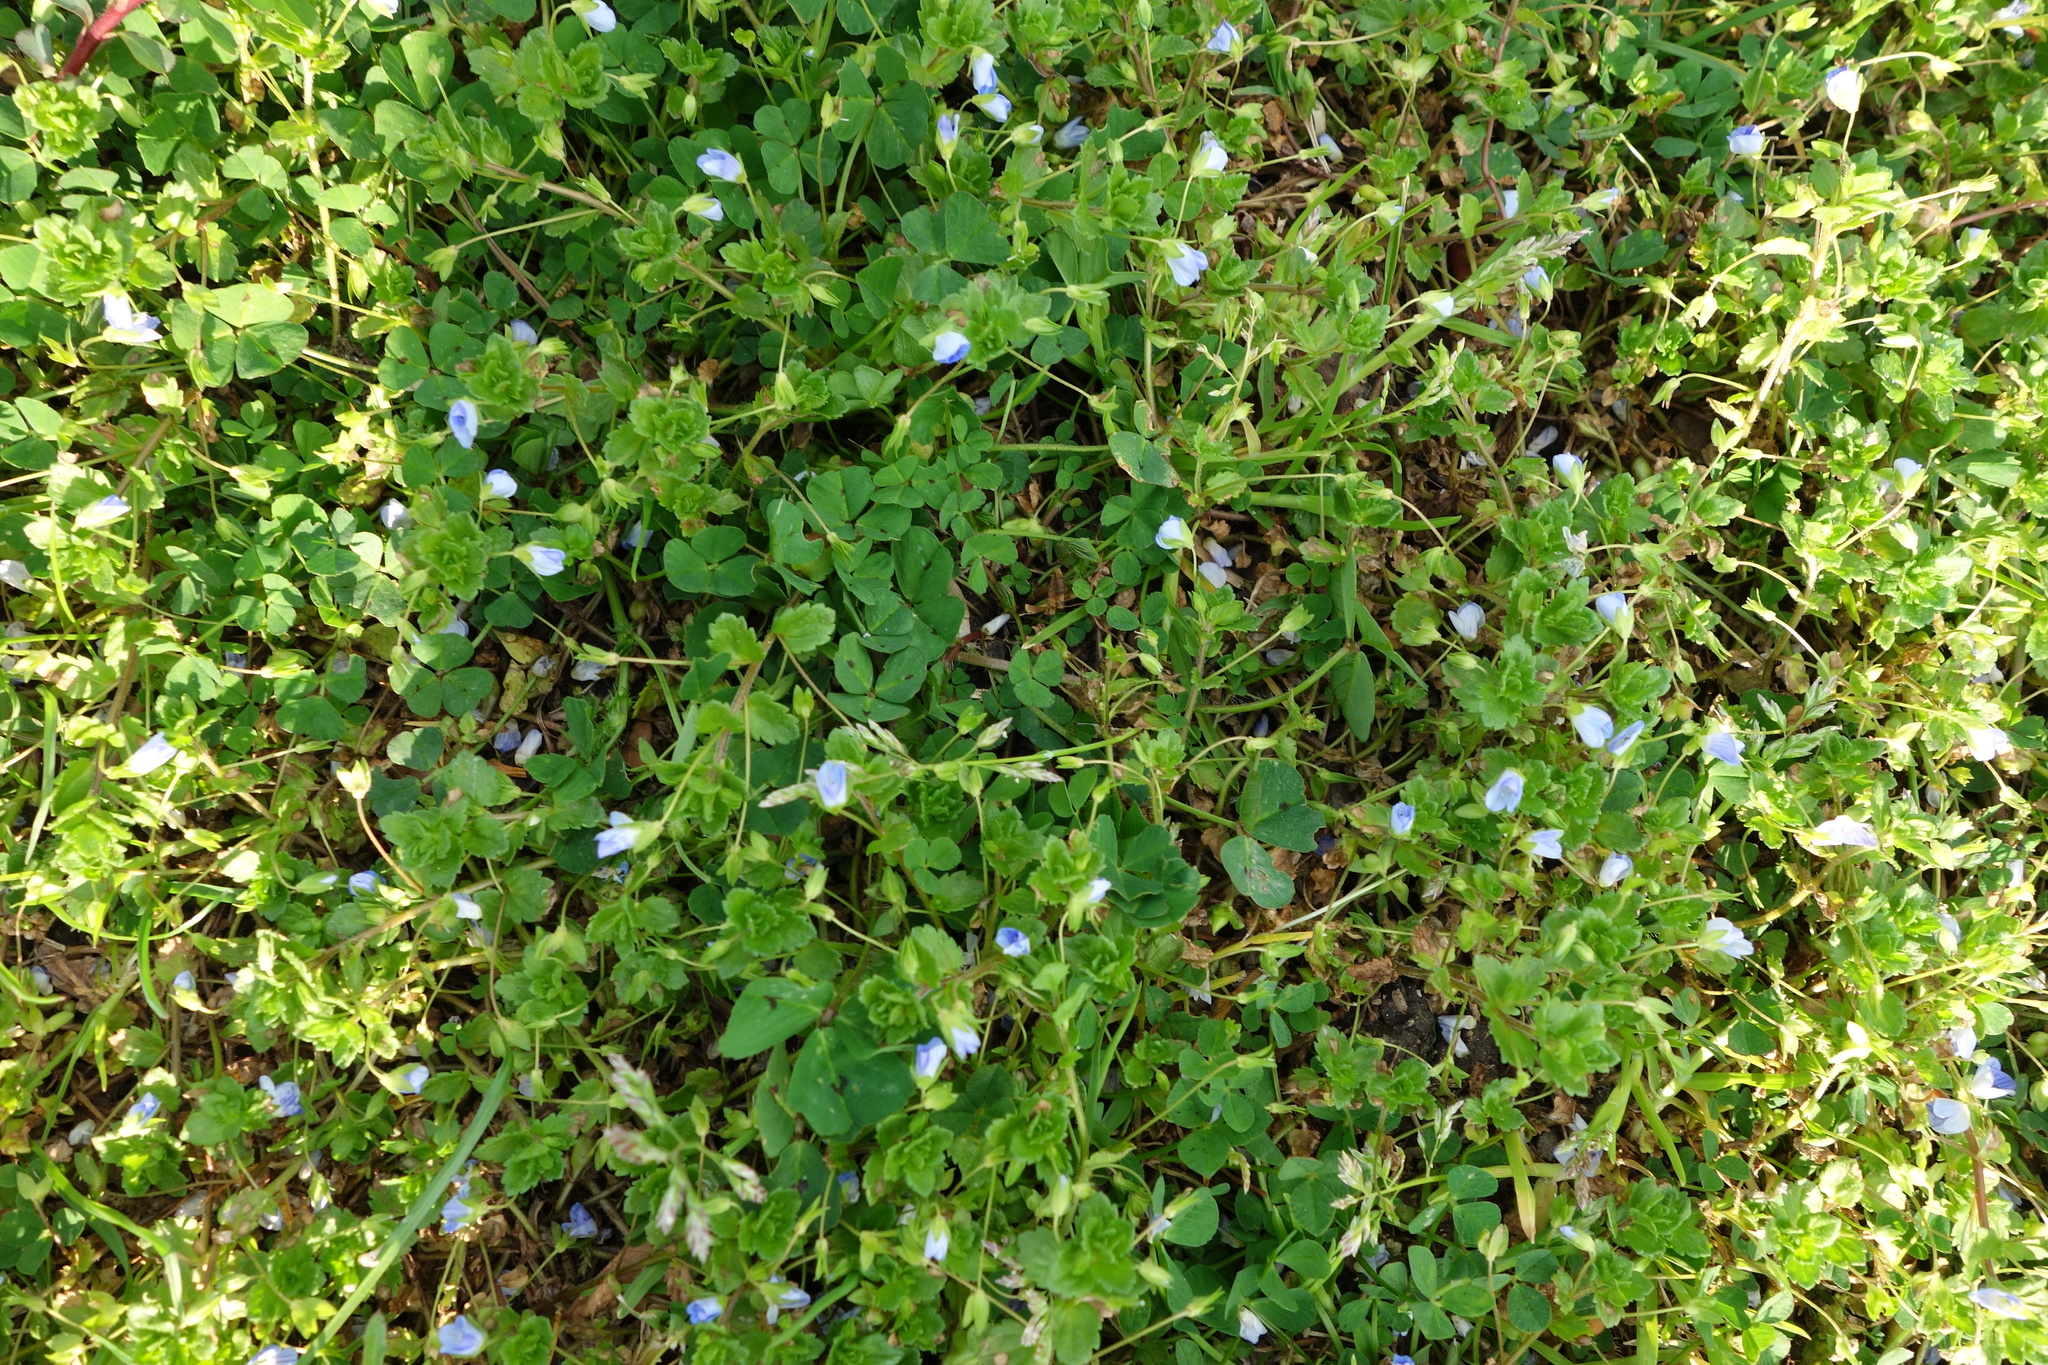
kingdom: Plantae
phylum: Tracheophyta
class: Magnoliopsida
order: Lamiales
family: Plantaginaceae
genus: Veronica
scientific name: Veronica persica
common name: Common field-speedwell
